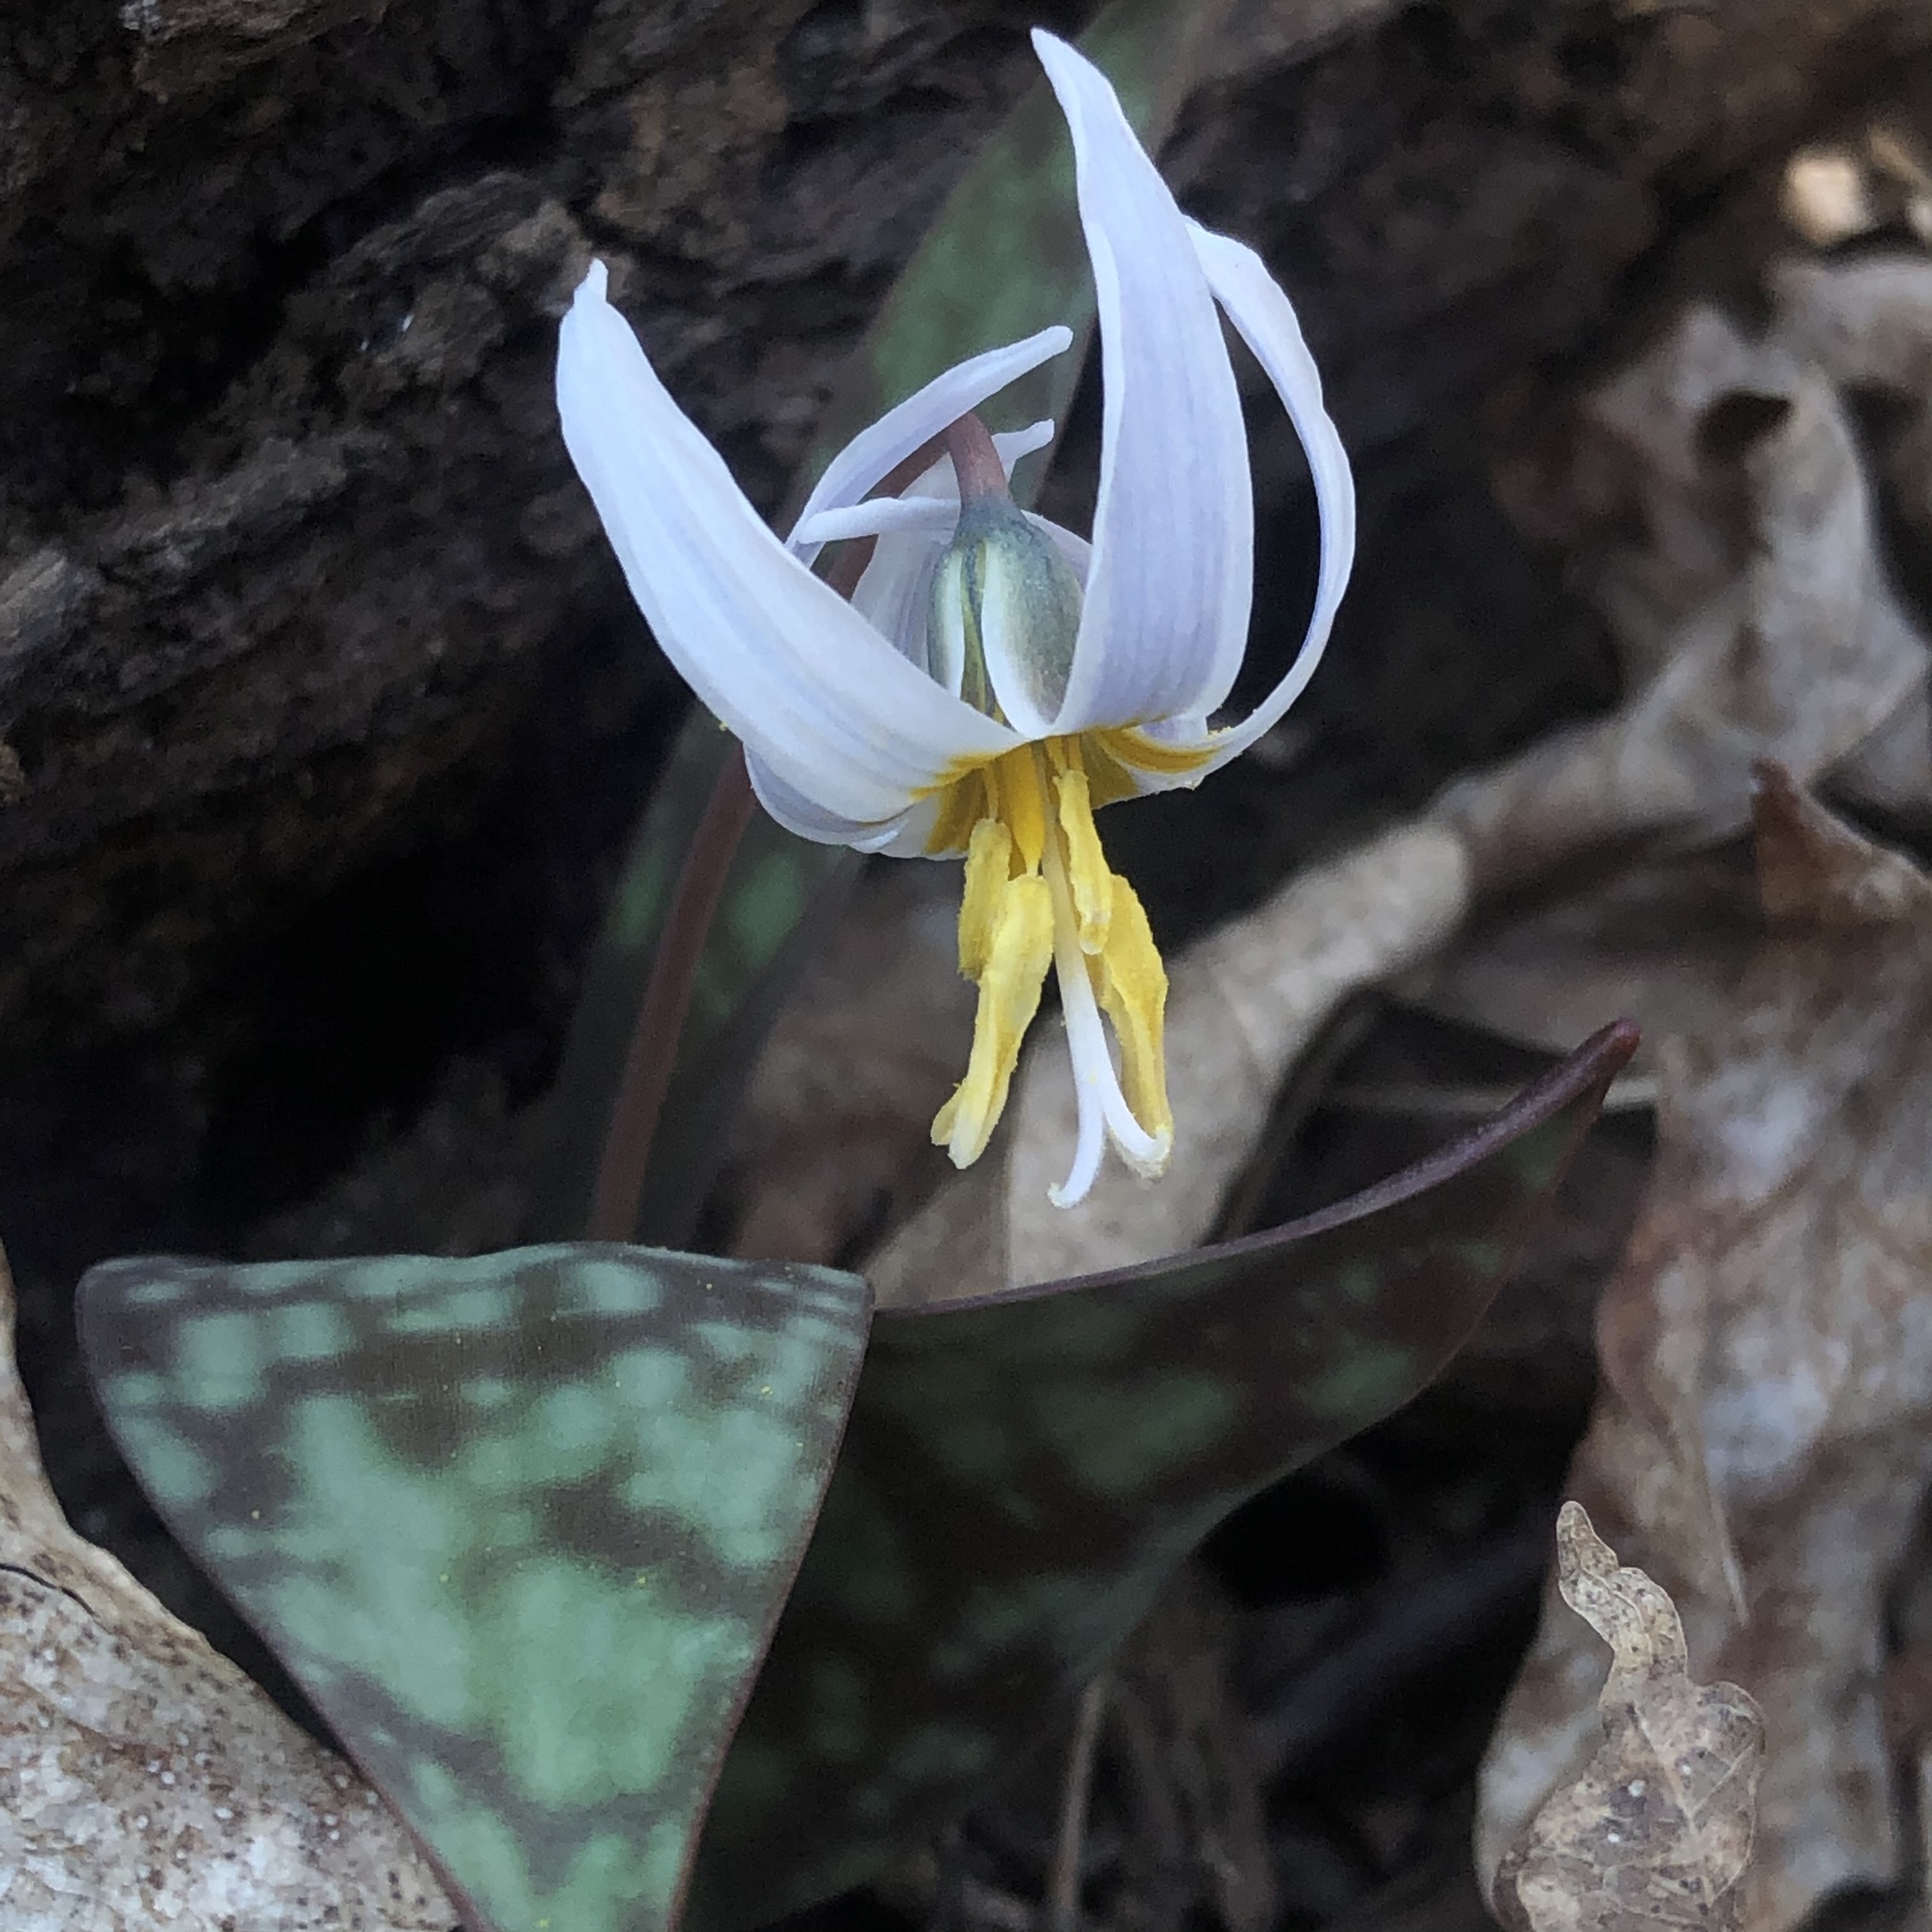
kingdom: Plantae
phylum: Tracheophyta
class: Liliopsida
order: Liliales
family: Liliaceae
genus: Erythronium
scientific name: Erythronium albidum
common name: White trout-lily
